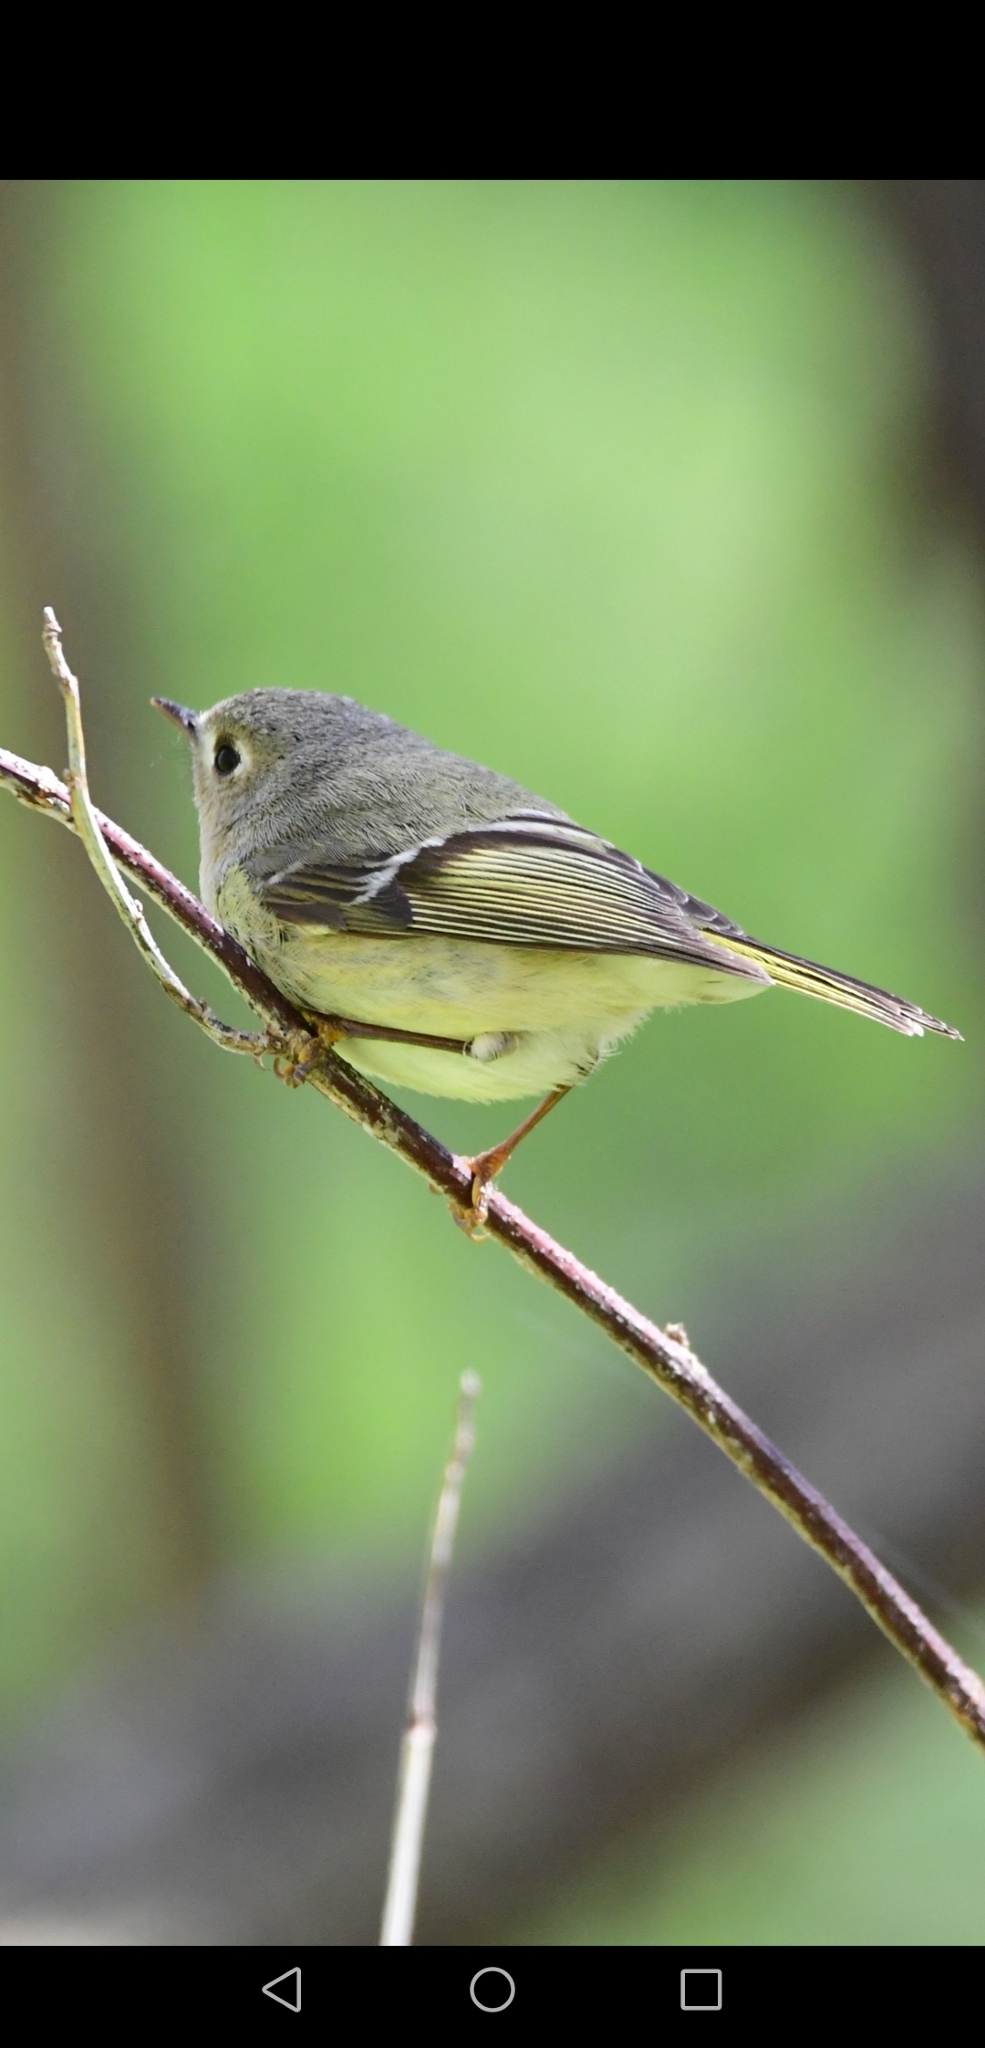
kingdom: Animalia
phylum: Chordata
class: Aves
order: Passeriformes
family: Regulidae
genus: Regulus
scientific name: Regulus calendula
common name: Ruby-crowned kinglet
